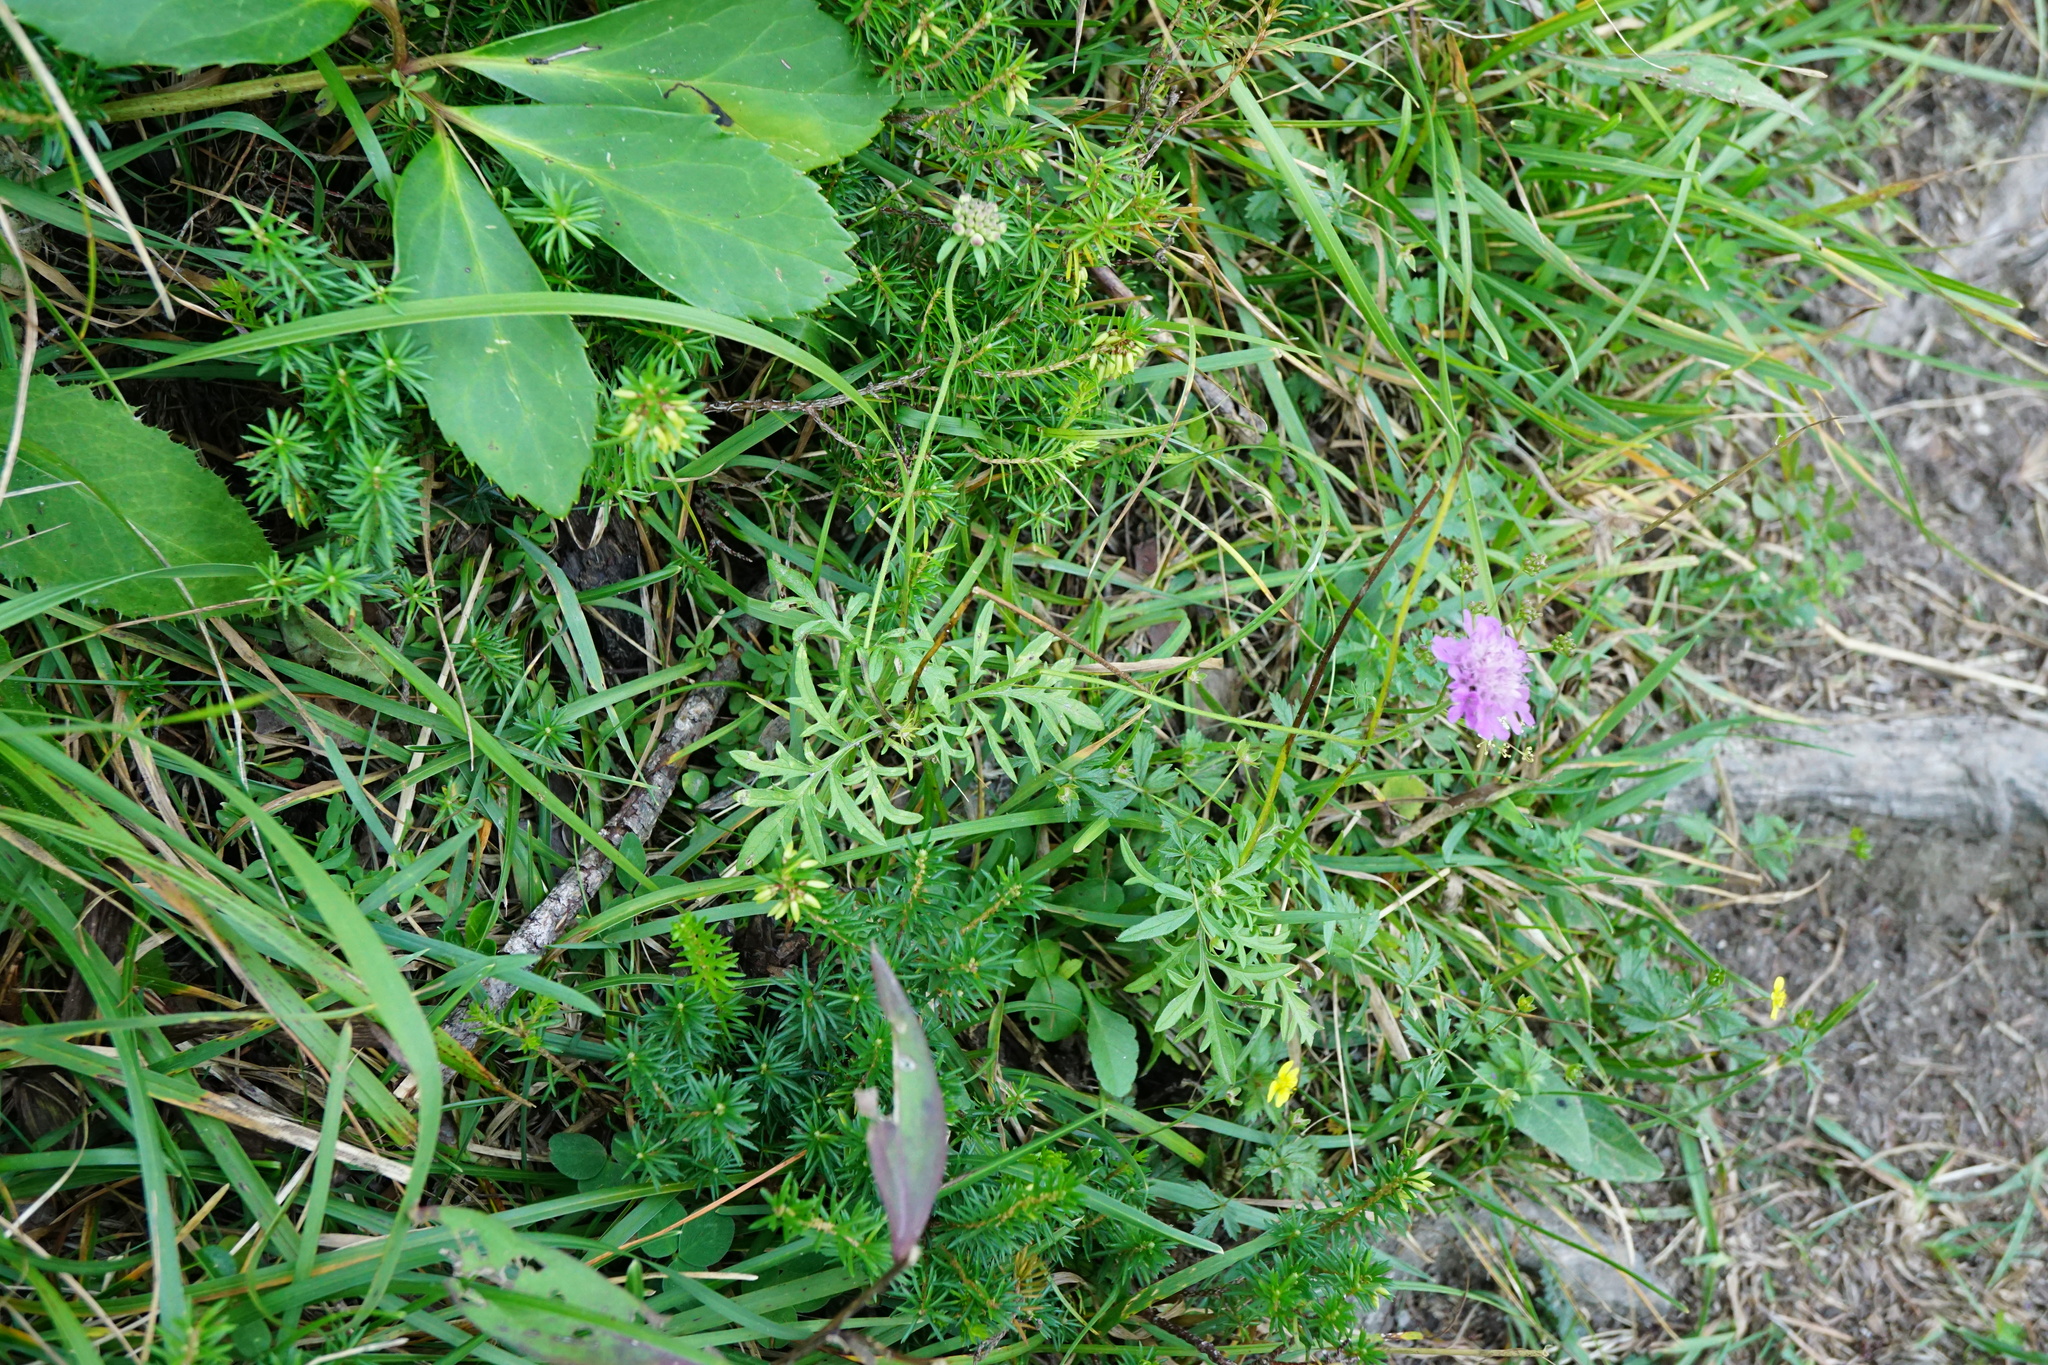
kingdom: Plantae
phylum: Tracheophyta
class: Magnoliopsida
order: Dipsacales
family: Caprifoliaceae
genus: Scabiosa
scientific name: Scabiosa lucida
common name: Shining scabious
